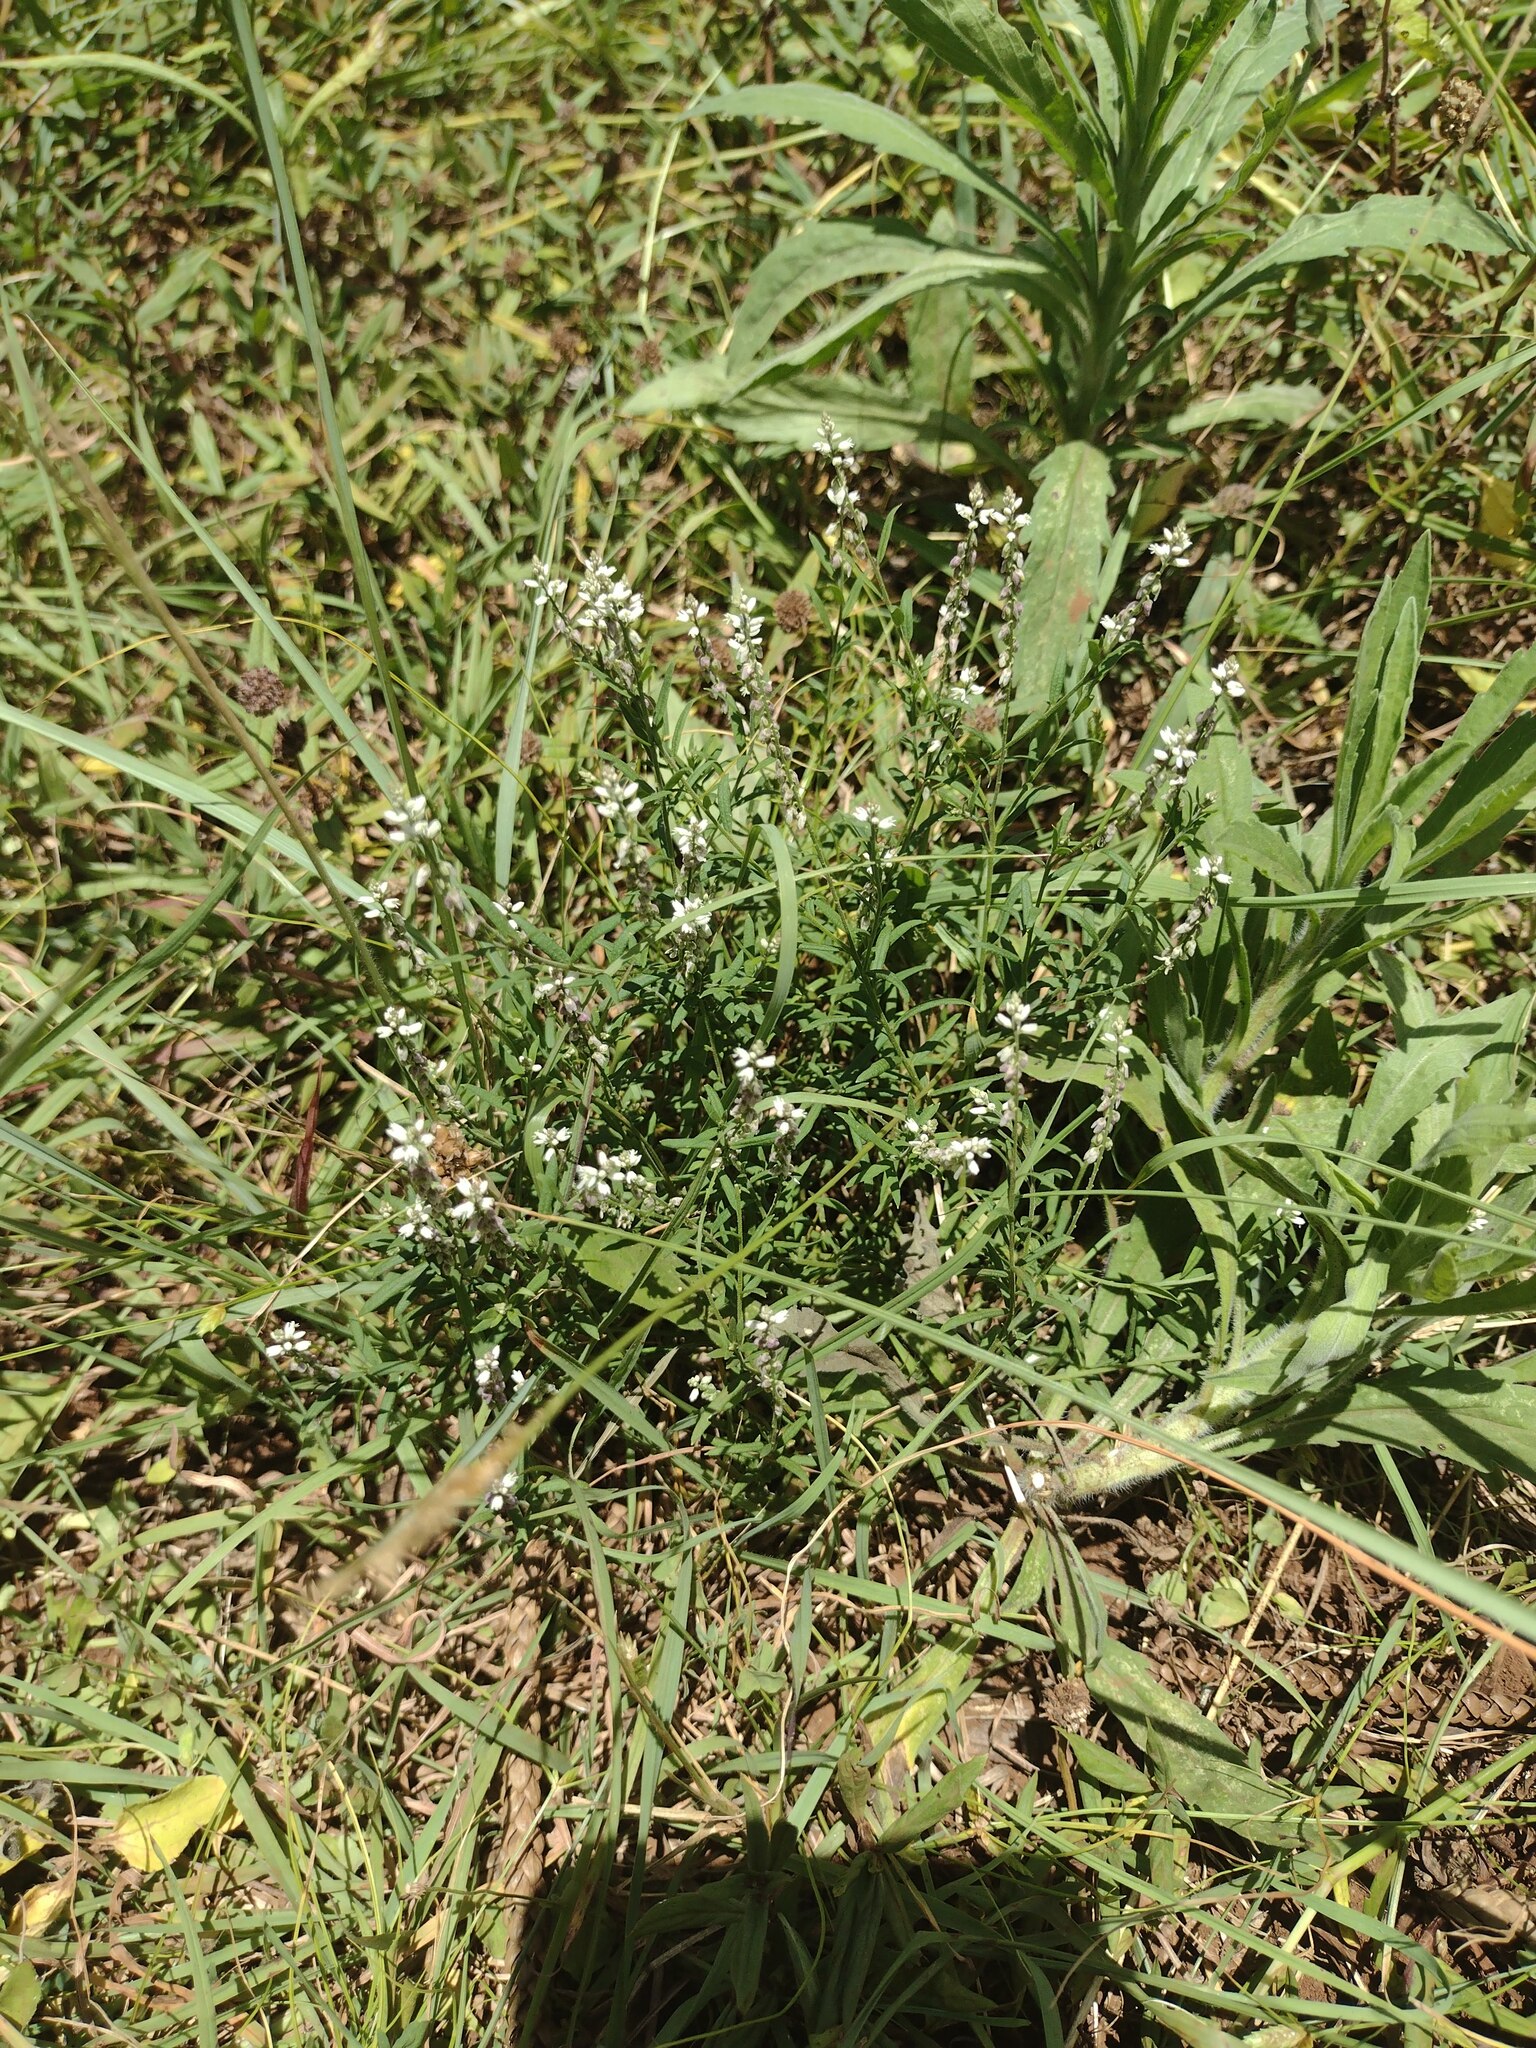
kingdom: Plantae
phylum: Tracheophyta
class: Magnoliopsida
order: Fabales
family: Polygalaceae
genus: Polygala
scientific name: Polygala paniculata
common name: Orosne
